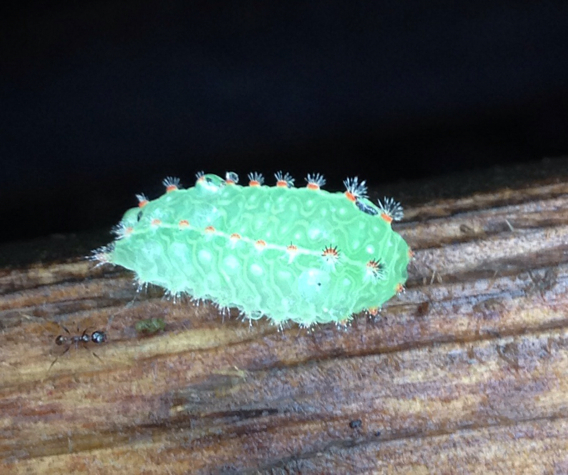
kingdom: Animalia
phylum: Arthropoda
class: Insecta
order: Lepidoptera
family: Limacodidae
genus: Natada
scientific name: Natada nasoni
